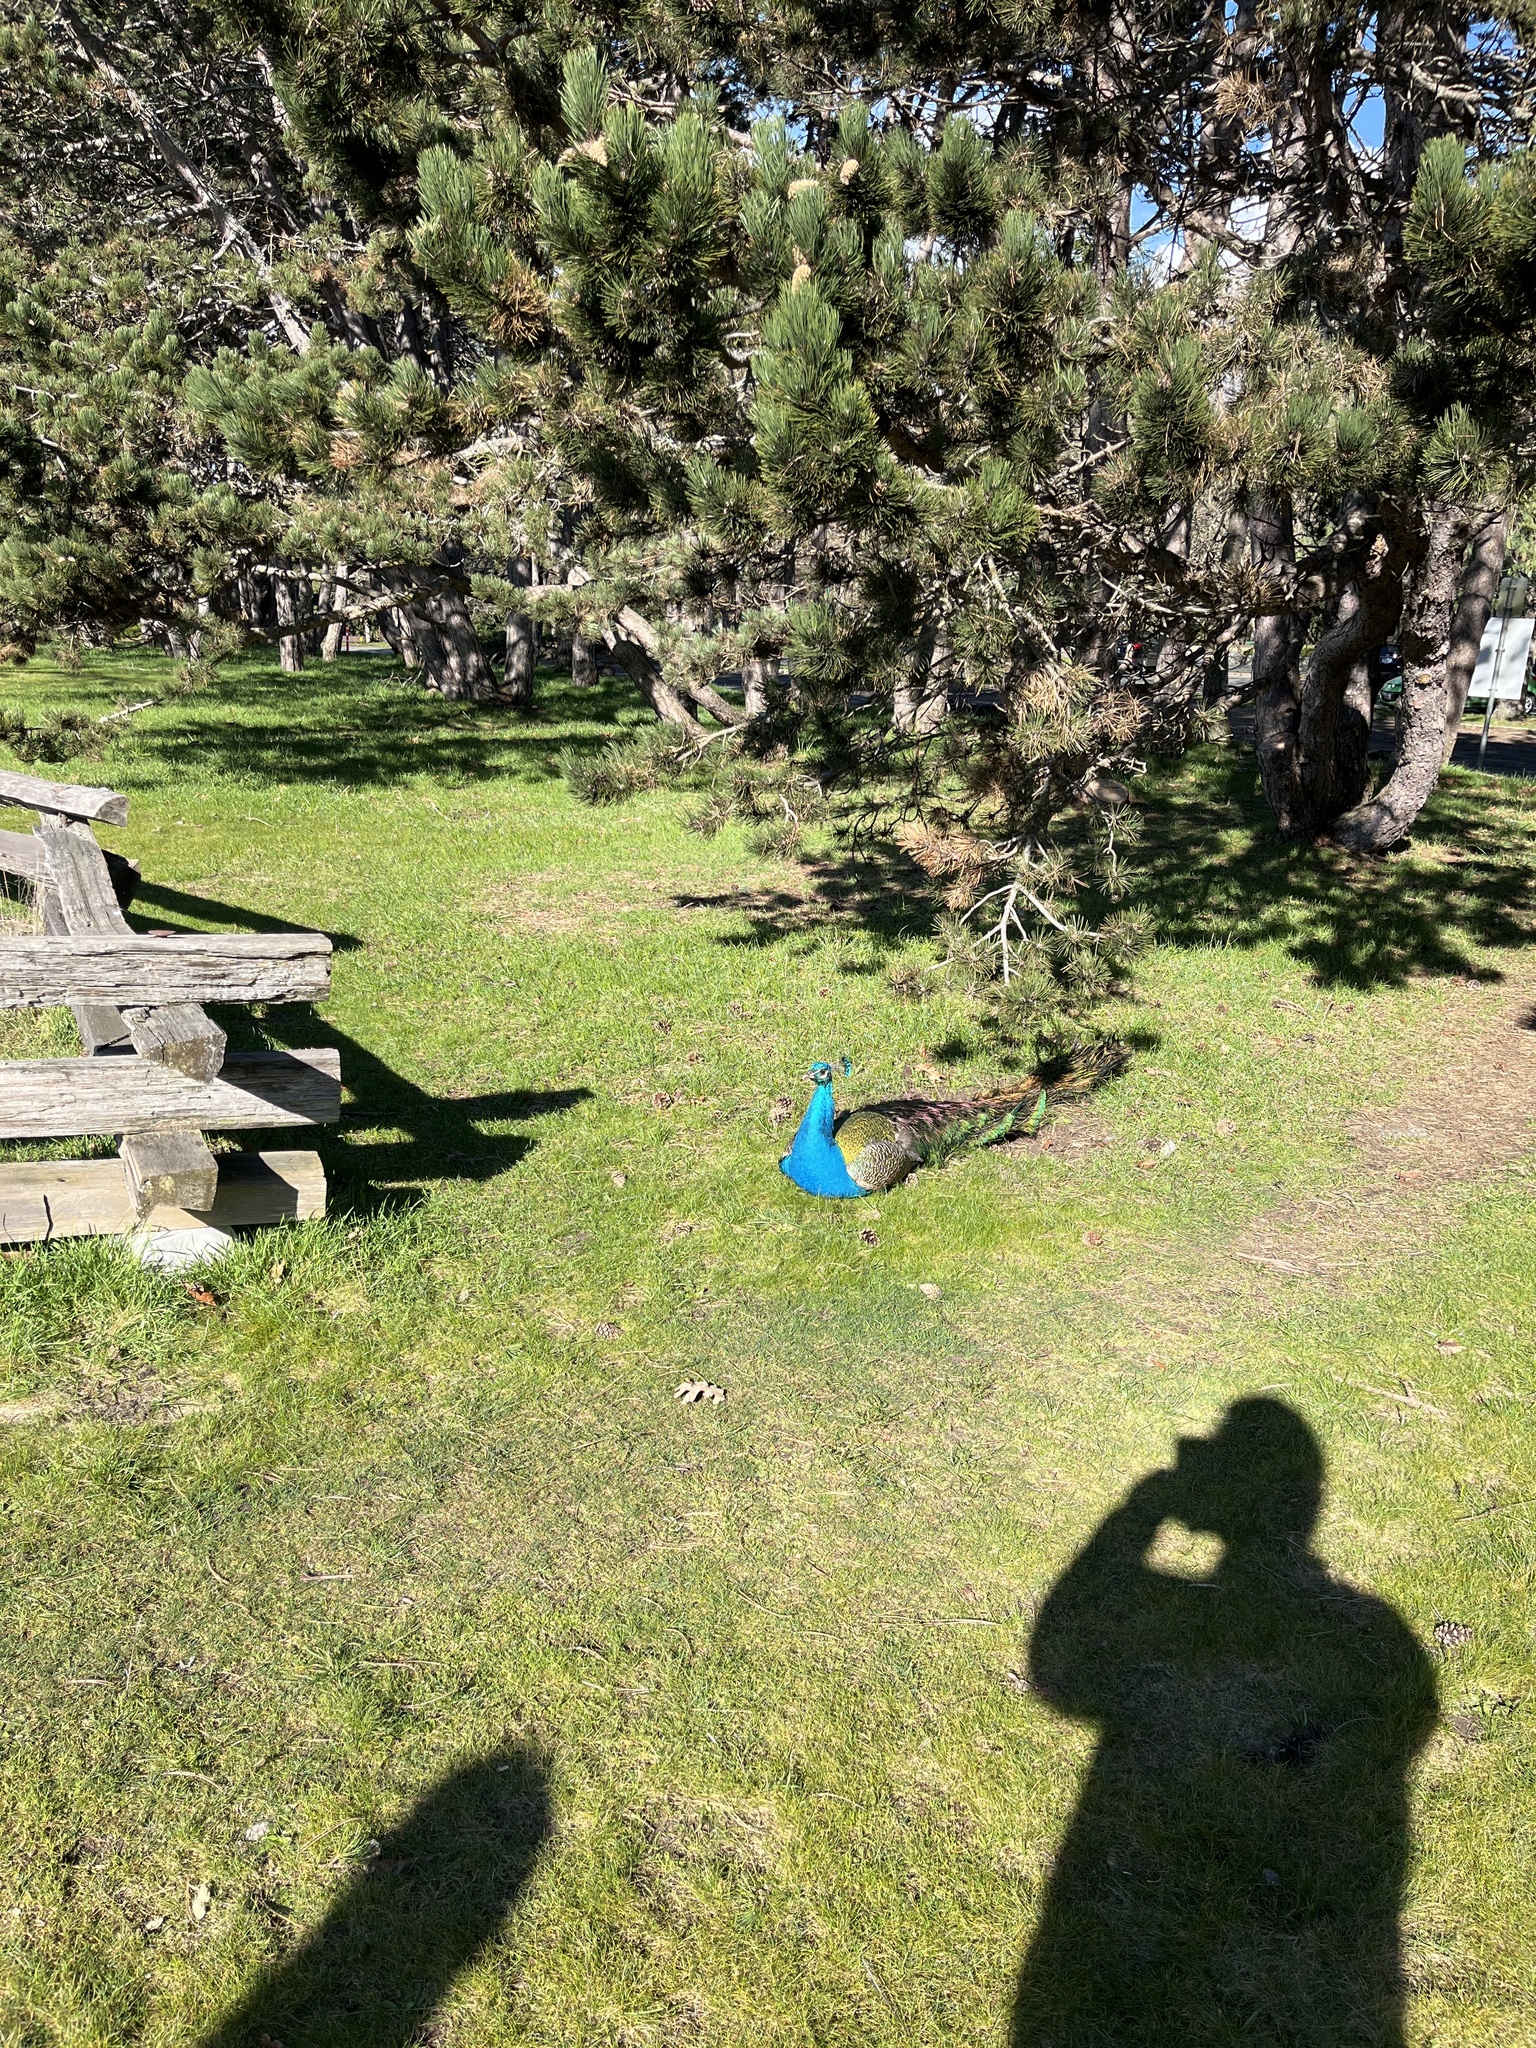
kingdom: Animalia
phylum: Chordata
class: Aves
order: Galliformes
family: Phasianidae
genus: Pavo
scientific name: Pavo cristatus
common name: Indian peafowl
